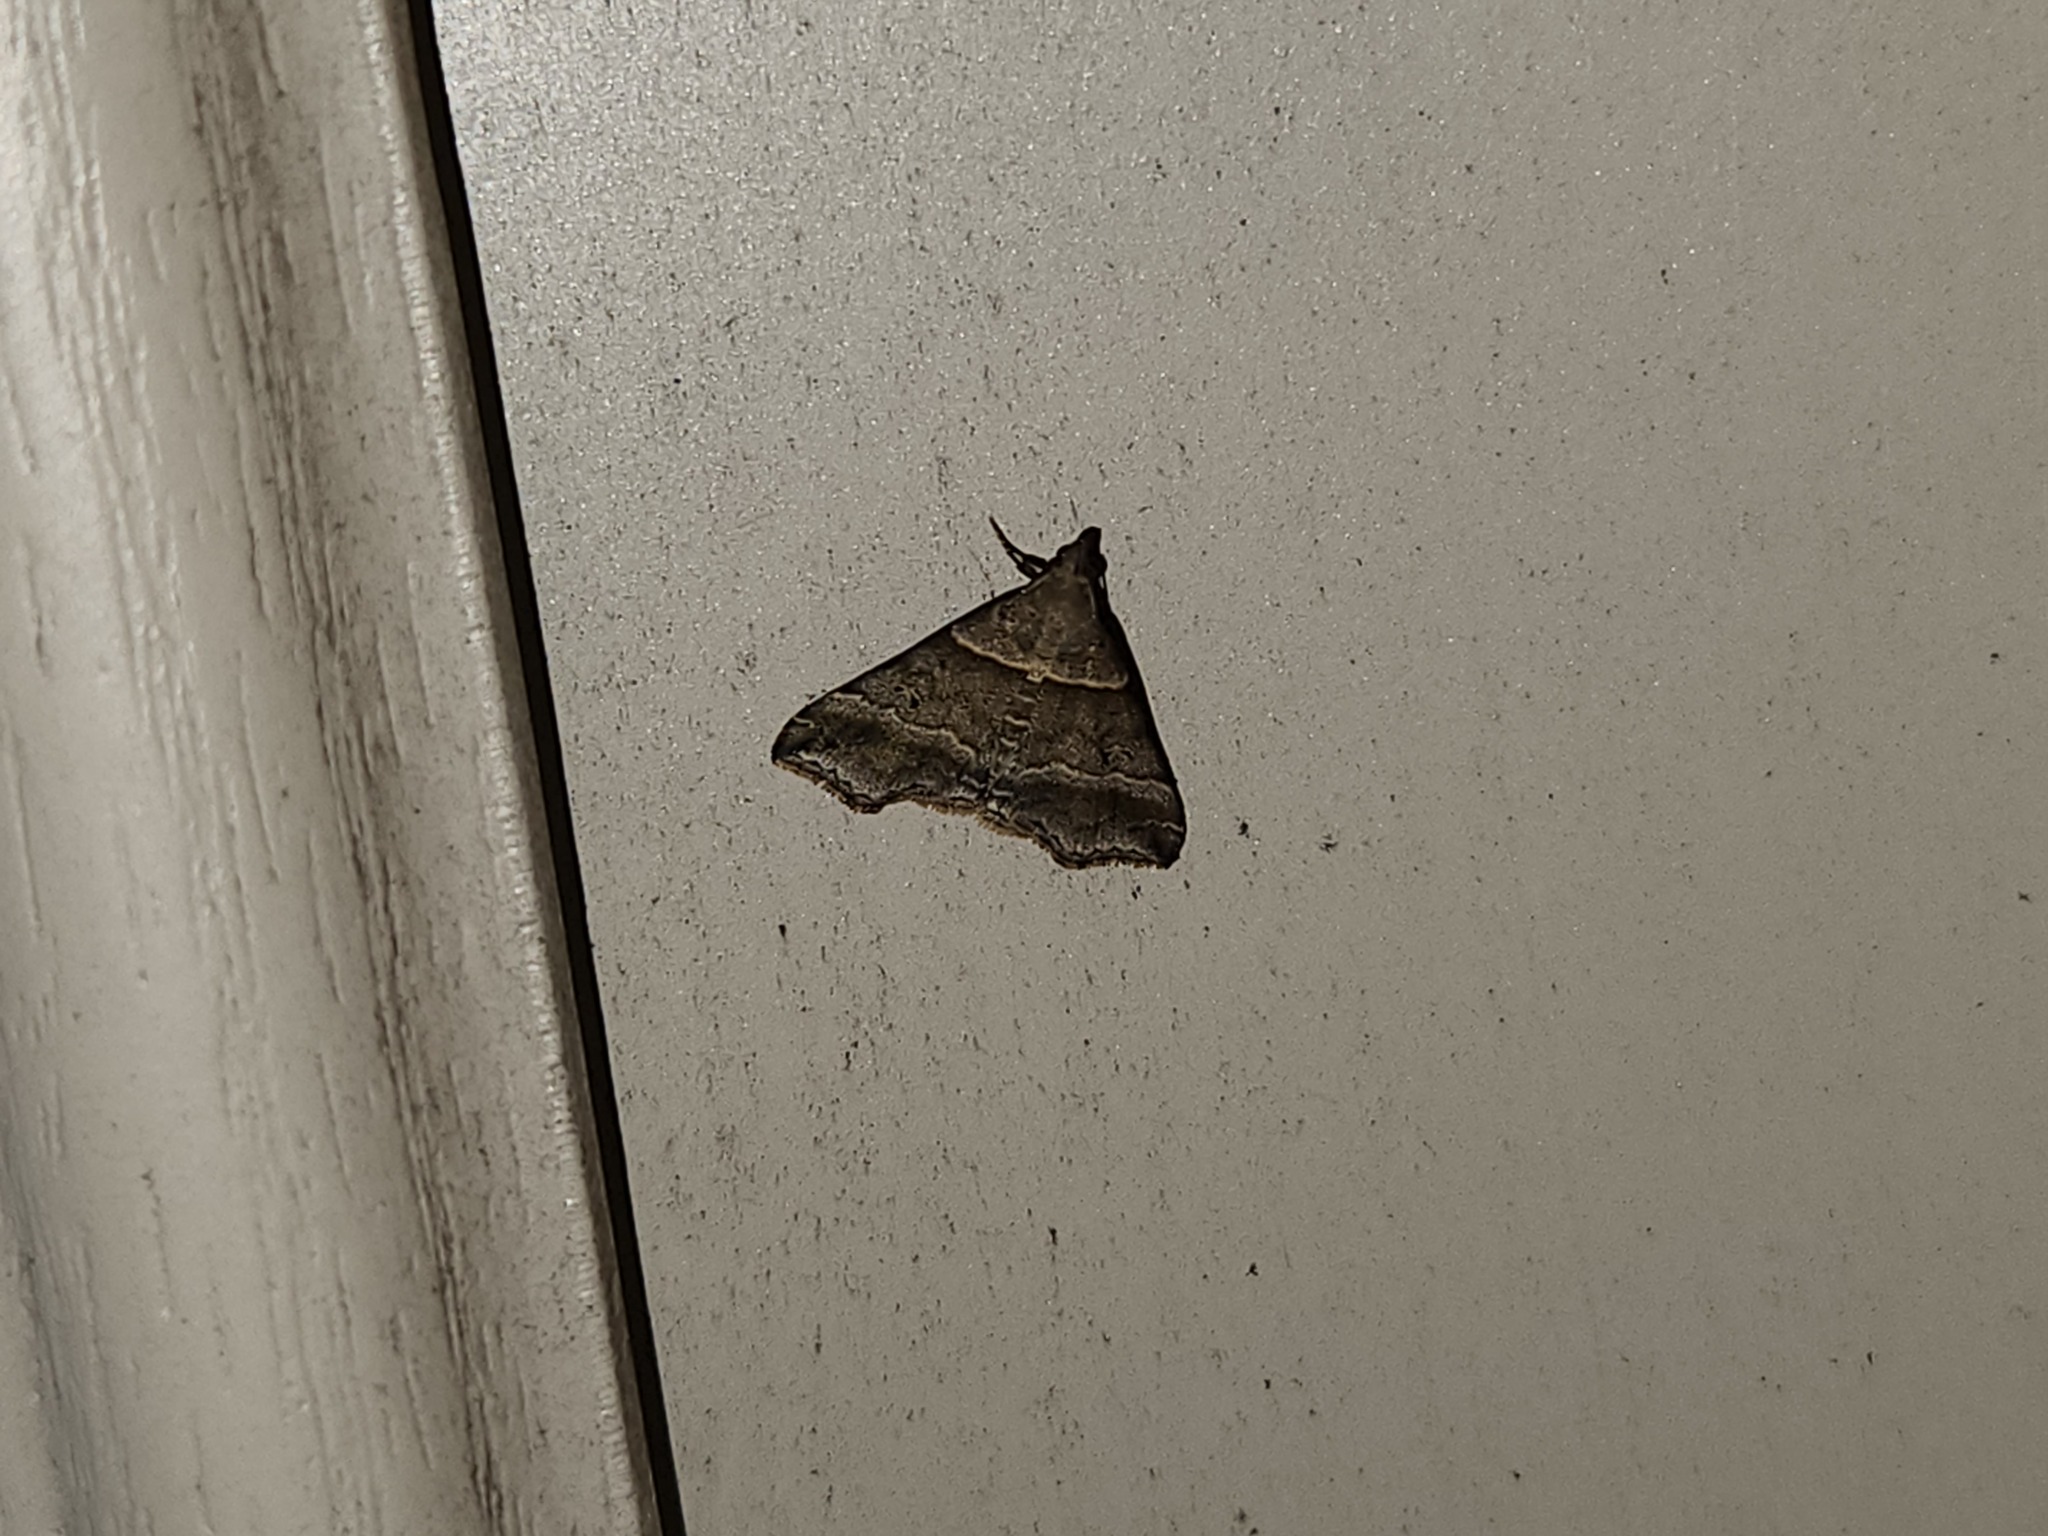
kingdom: Animalia
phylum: Arthropoda
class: Insecta
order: Lepidoptera
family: Erebidae
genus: Phaeolita
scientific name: Phaeolita pyramusalis
